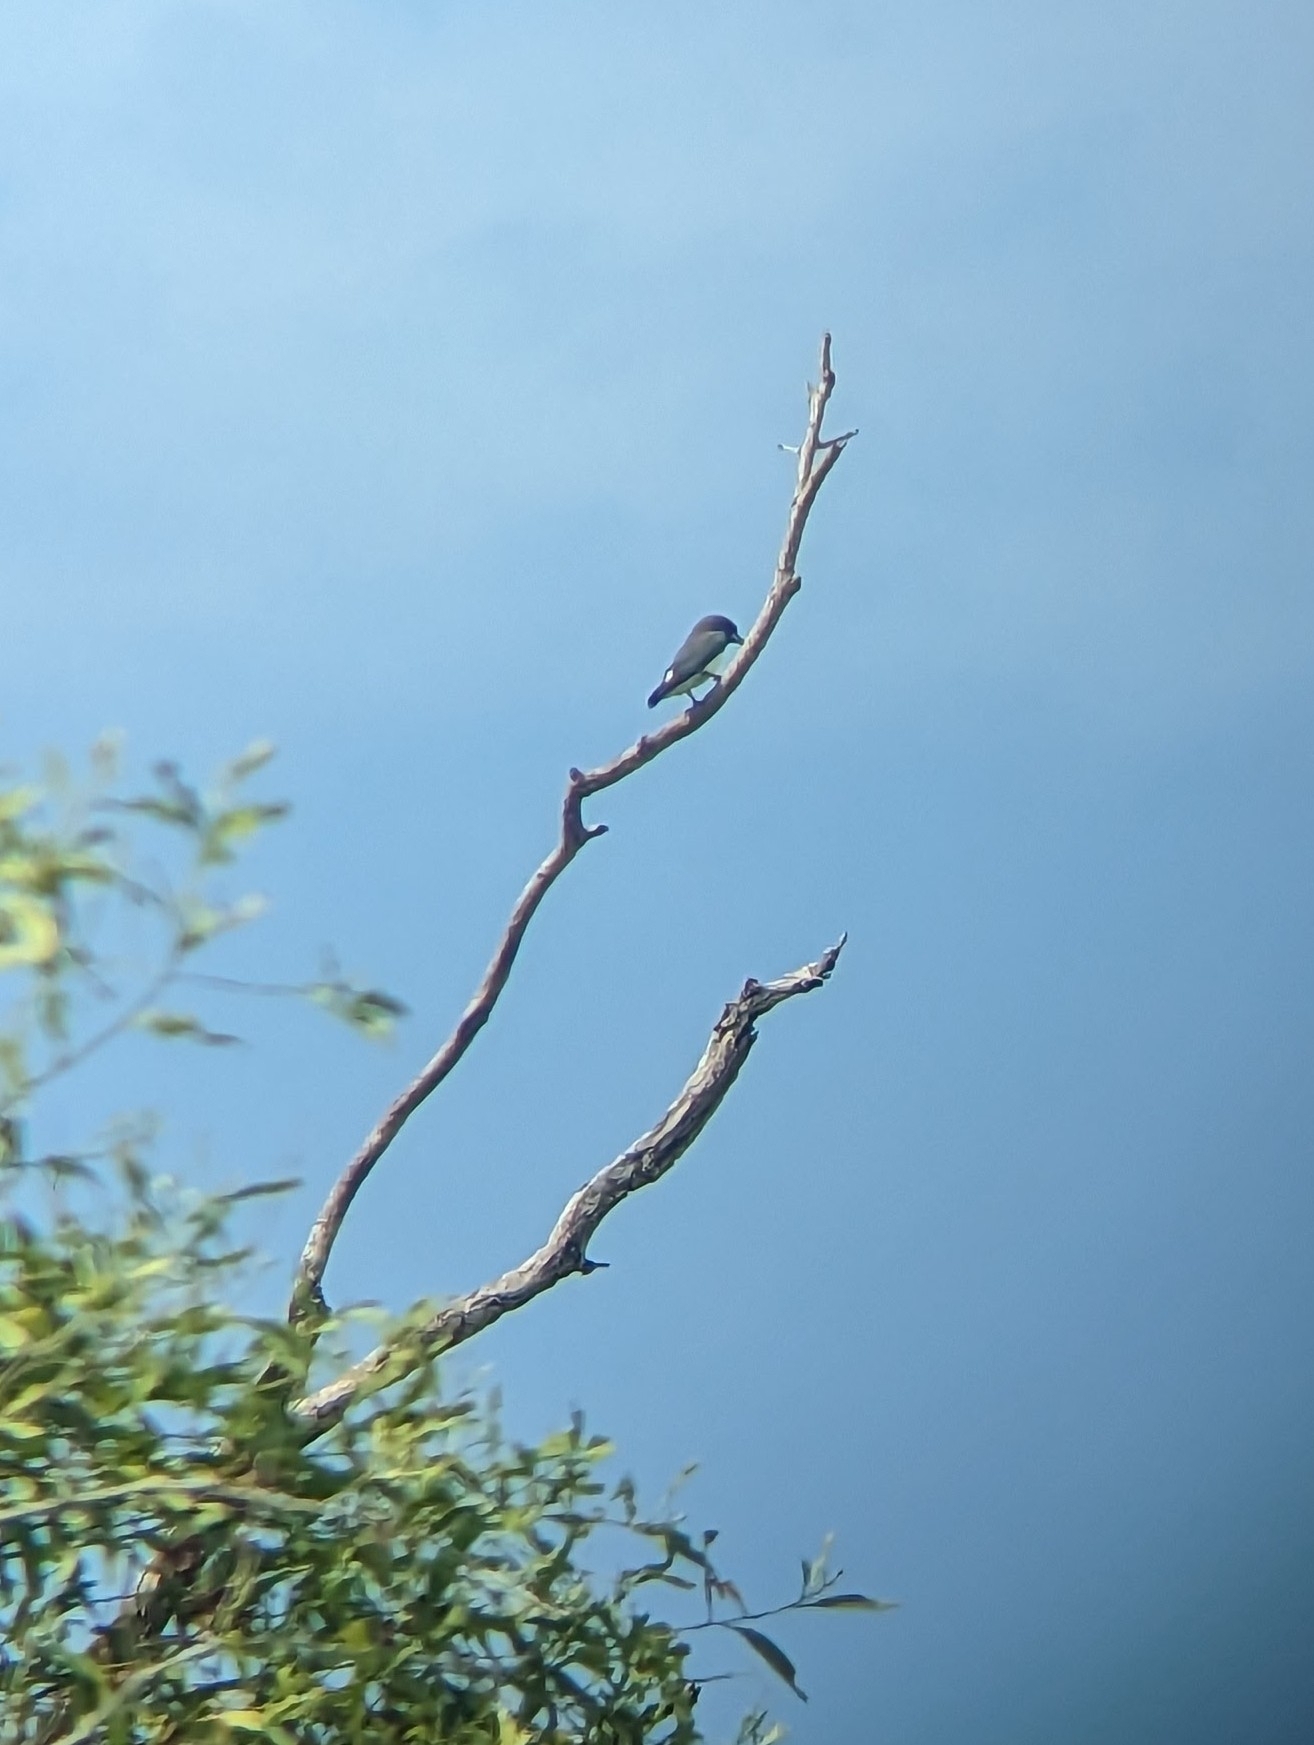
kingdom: Animalia
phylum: Chordata
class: Aves
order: Passeriformes
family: Artamidae
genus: Artamus
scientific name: Artamus leucoryn
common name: White-breasted woodswallow
